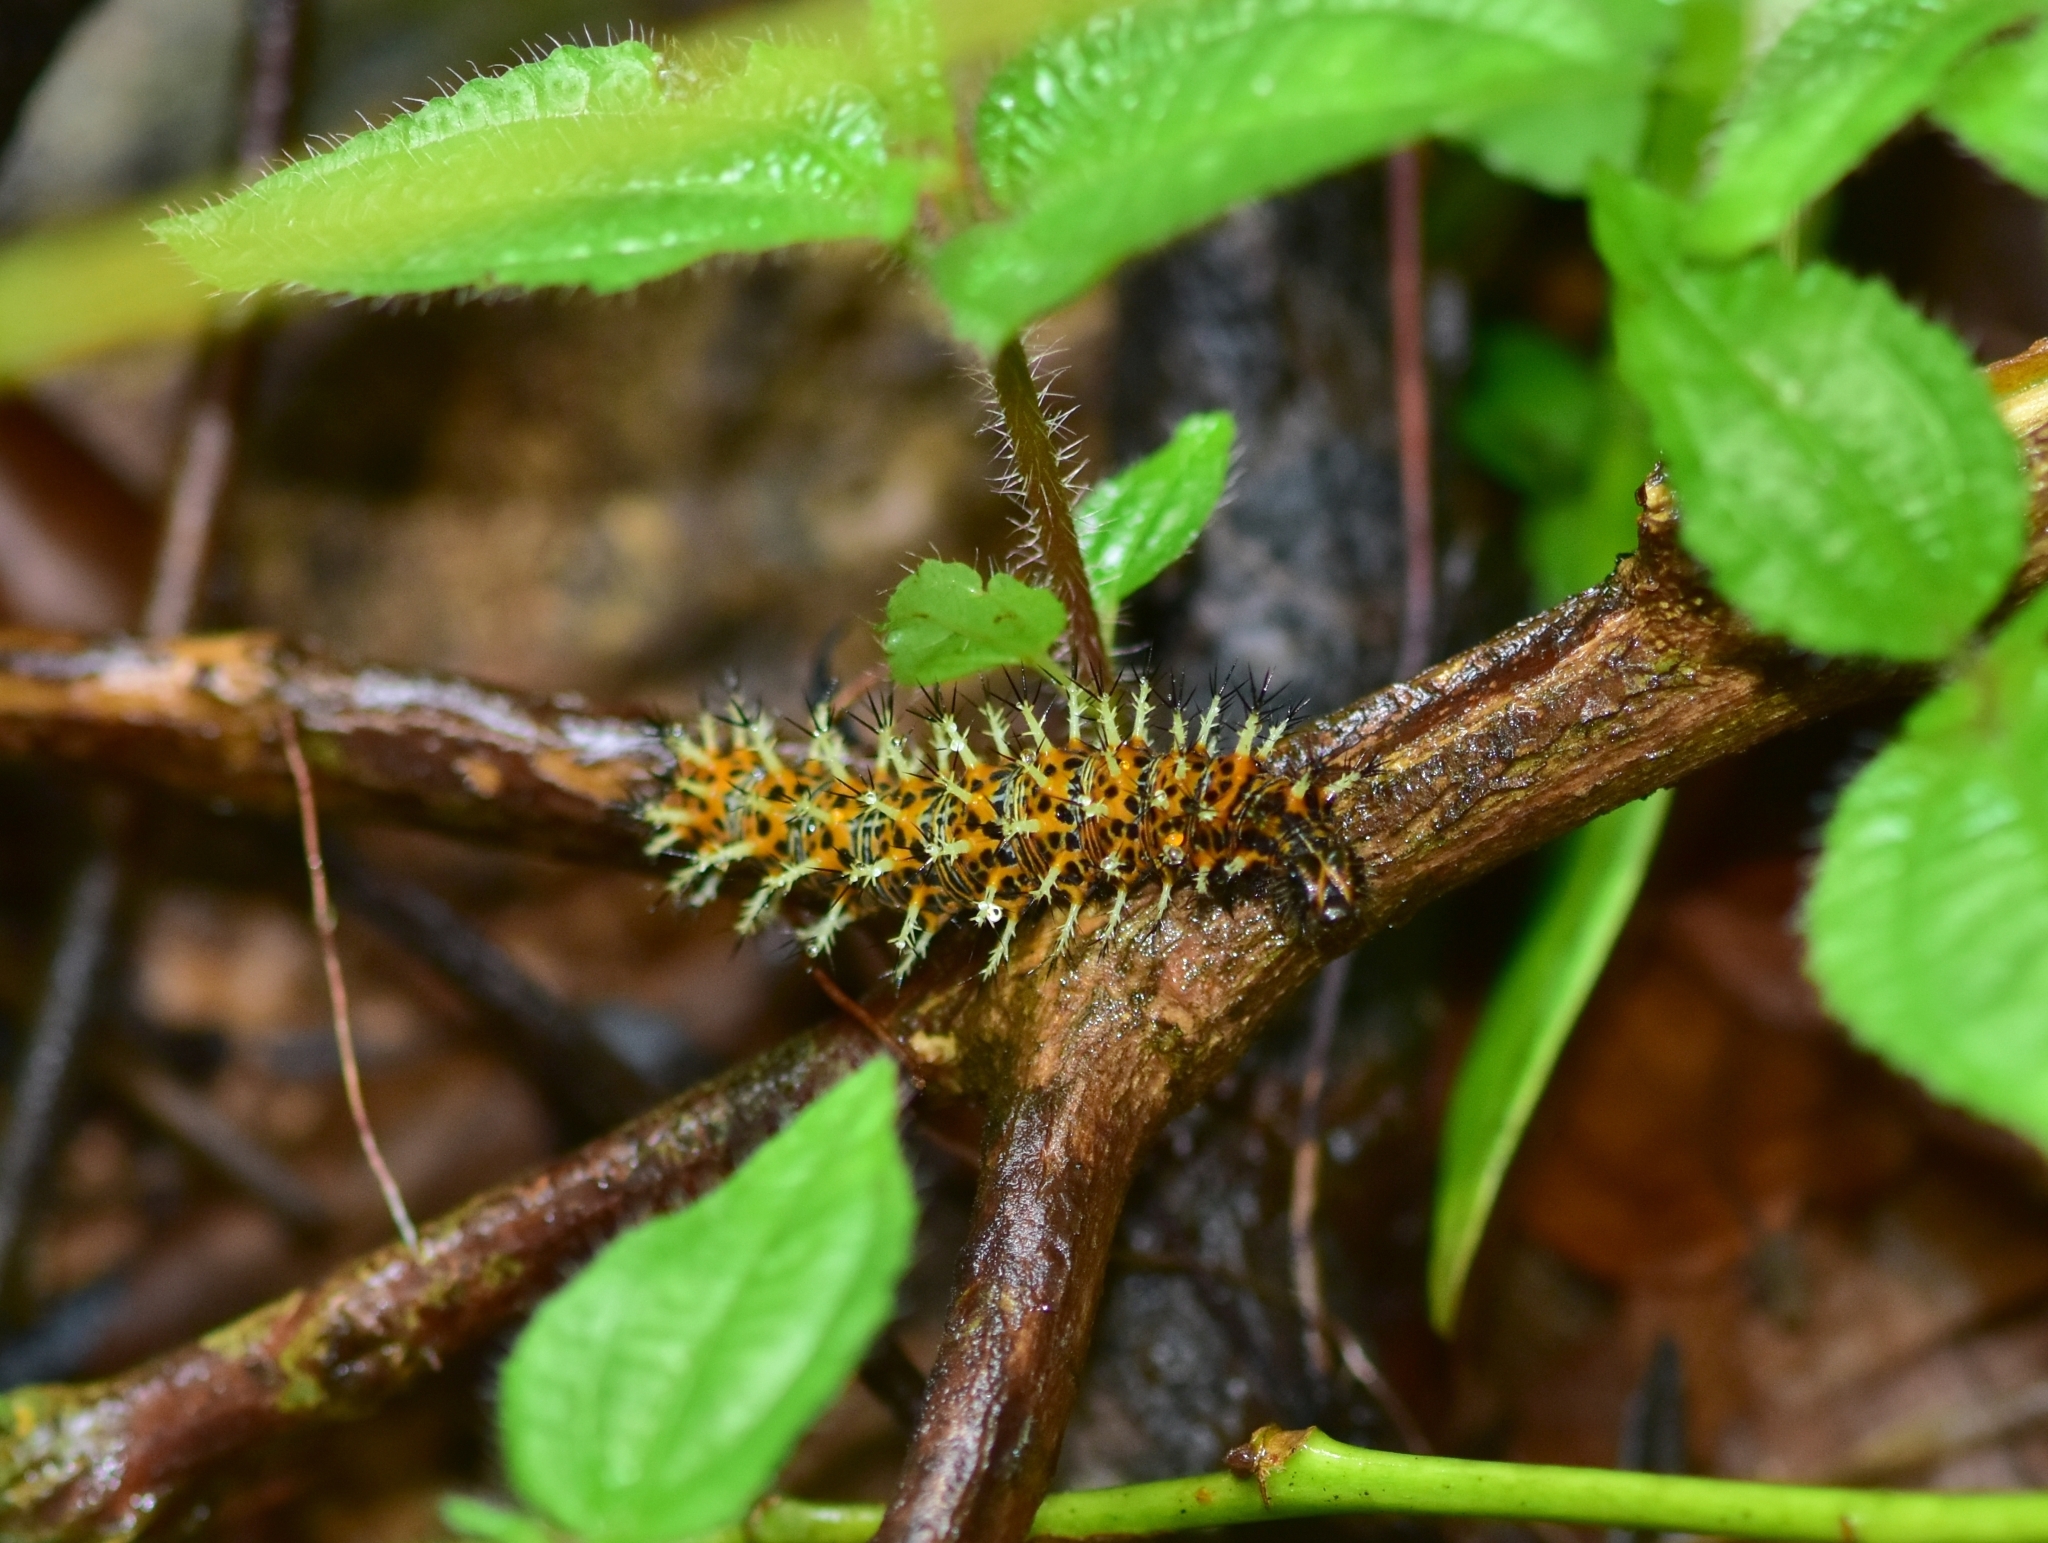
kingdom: Animalia
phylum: Arthropoda
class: Insecta
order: Lepidoptera
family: Nymphalidae
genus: Vanessa
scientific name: Vanessa Kaniska canace
